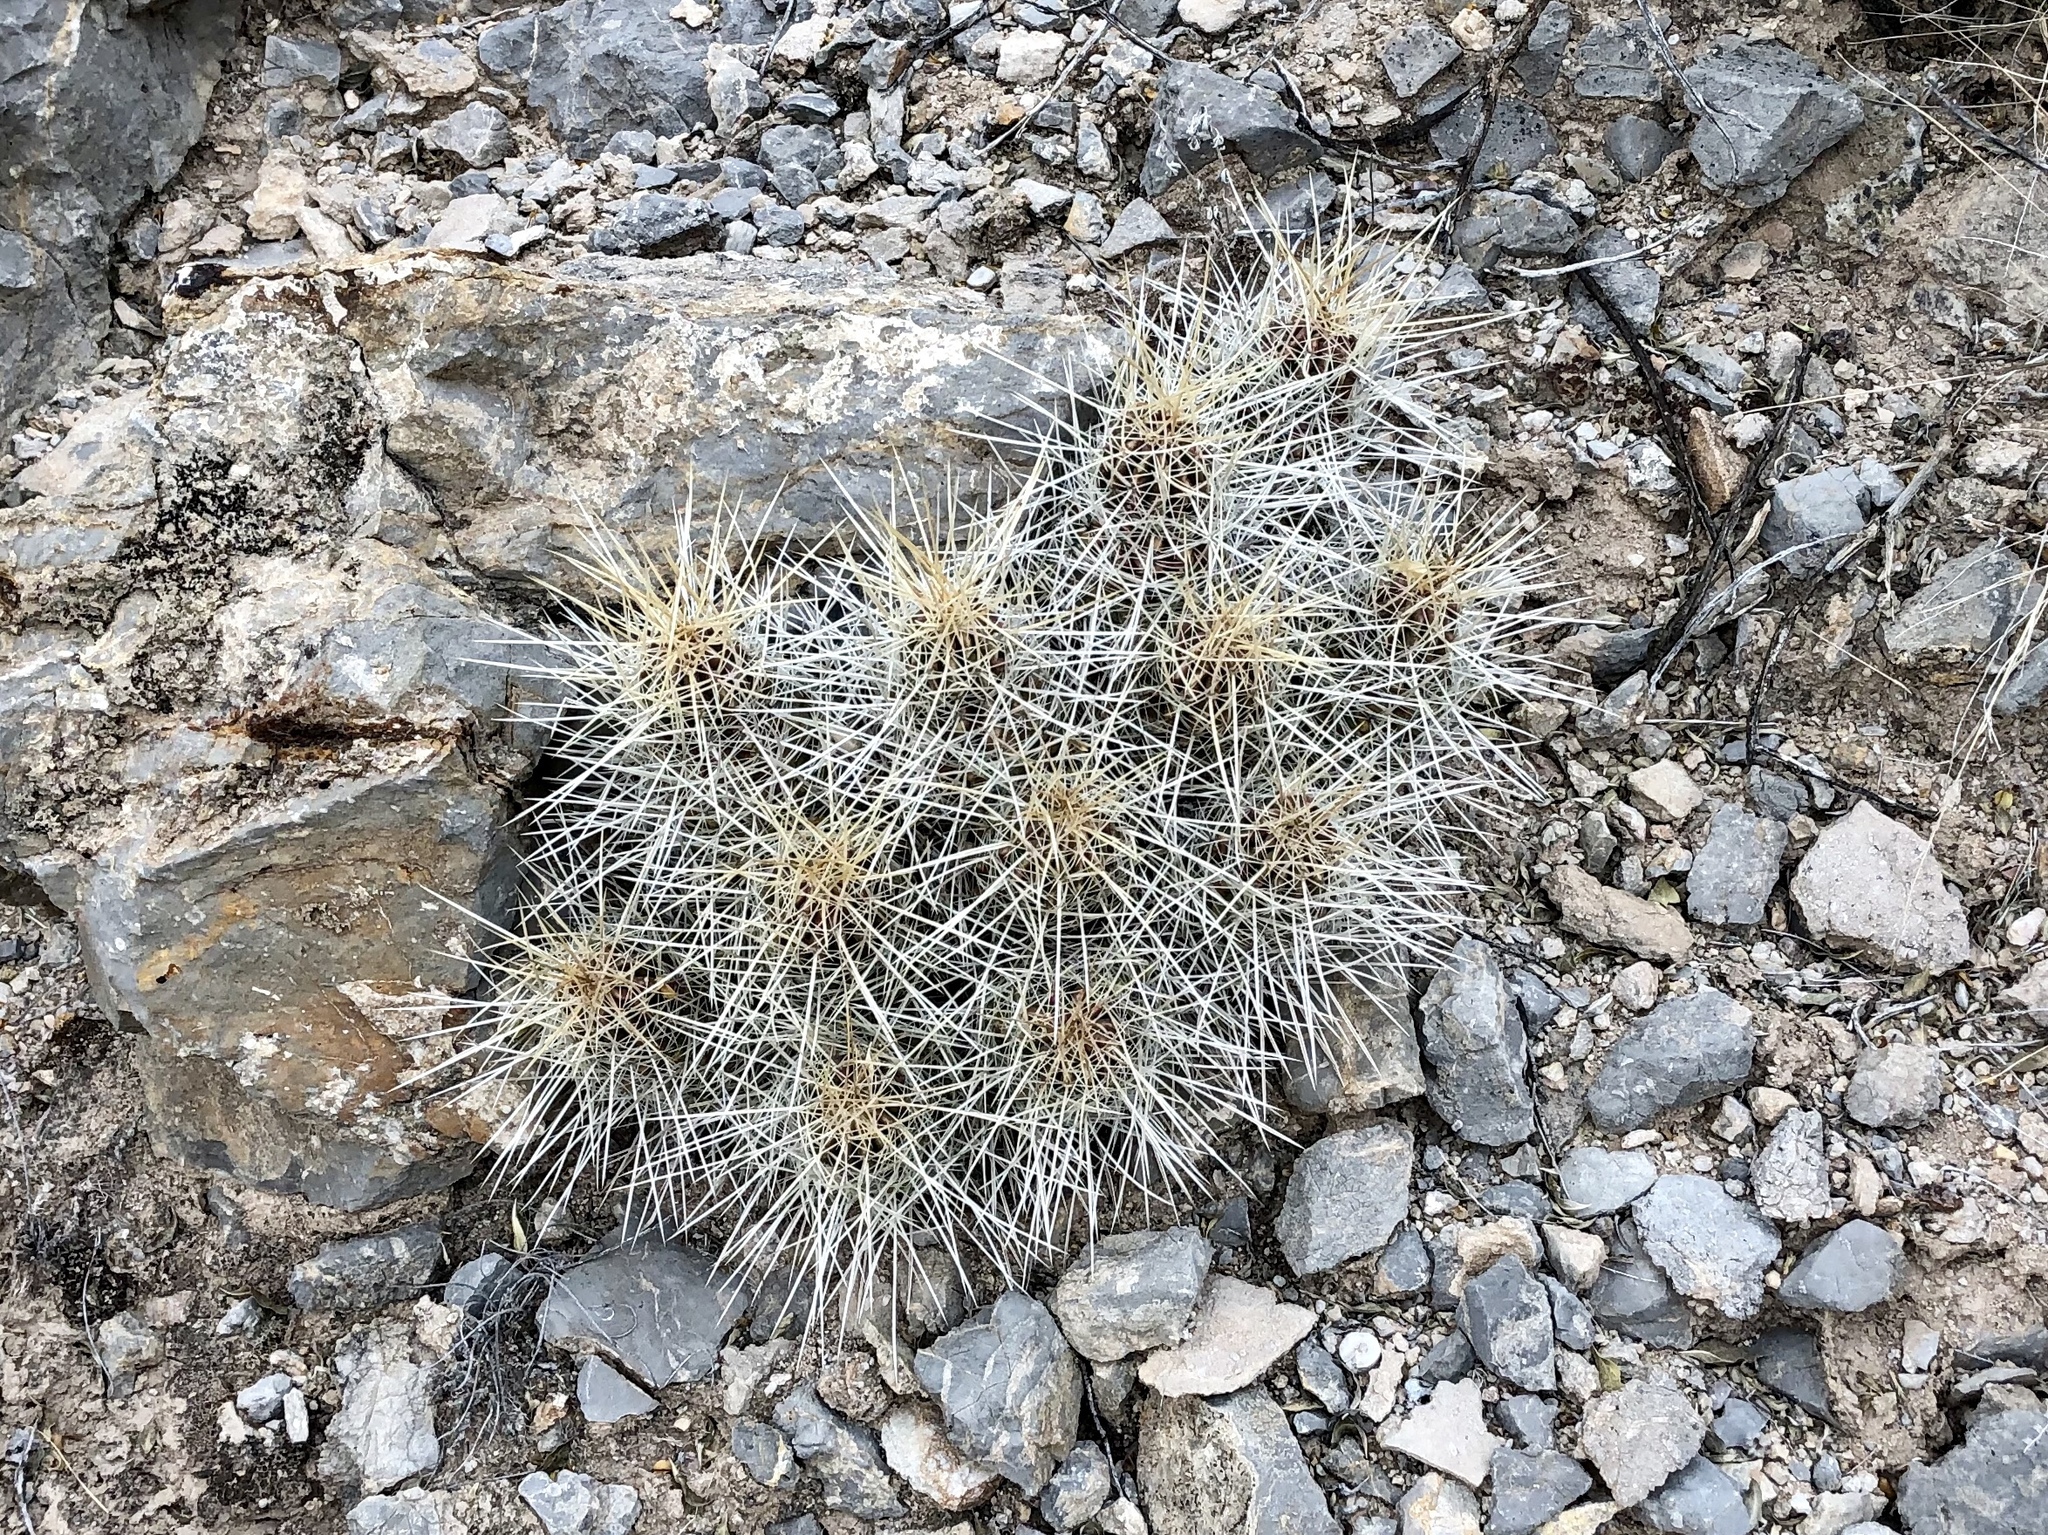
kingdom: Plantae
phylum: Tracheophyta
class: Magnoliopsida
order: Caryophyllales
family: Cactaceae
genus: Echinocereus
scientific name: Echinocereus stramineus
